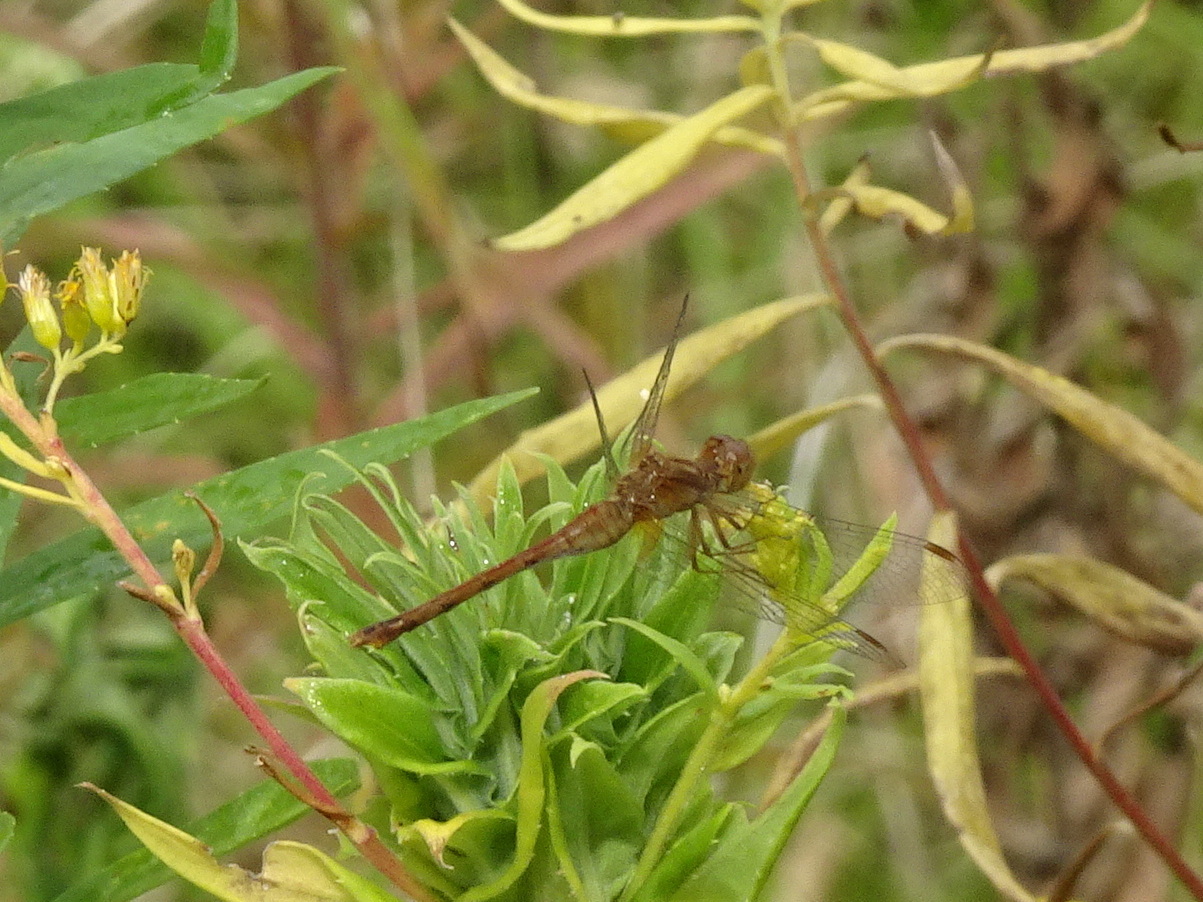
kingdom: Animalia
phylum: Arthropoda
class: Insecta
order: Odonata
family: Libellulidae
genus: Sympetrum
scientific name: Sympetrum vicinum
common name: Autumn meadowhawk
